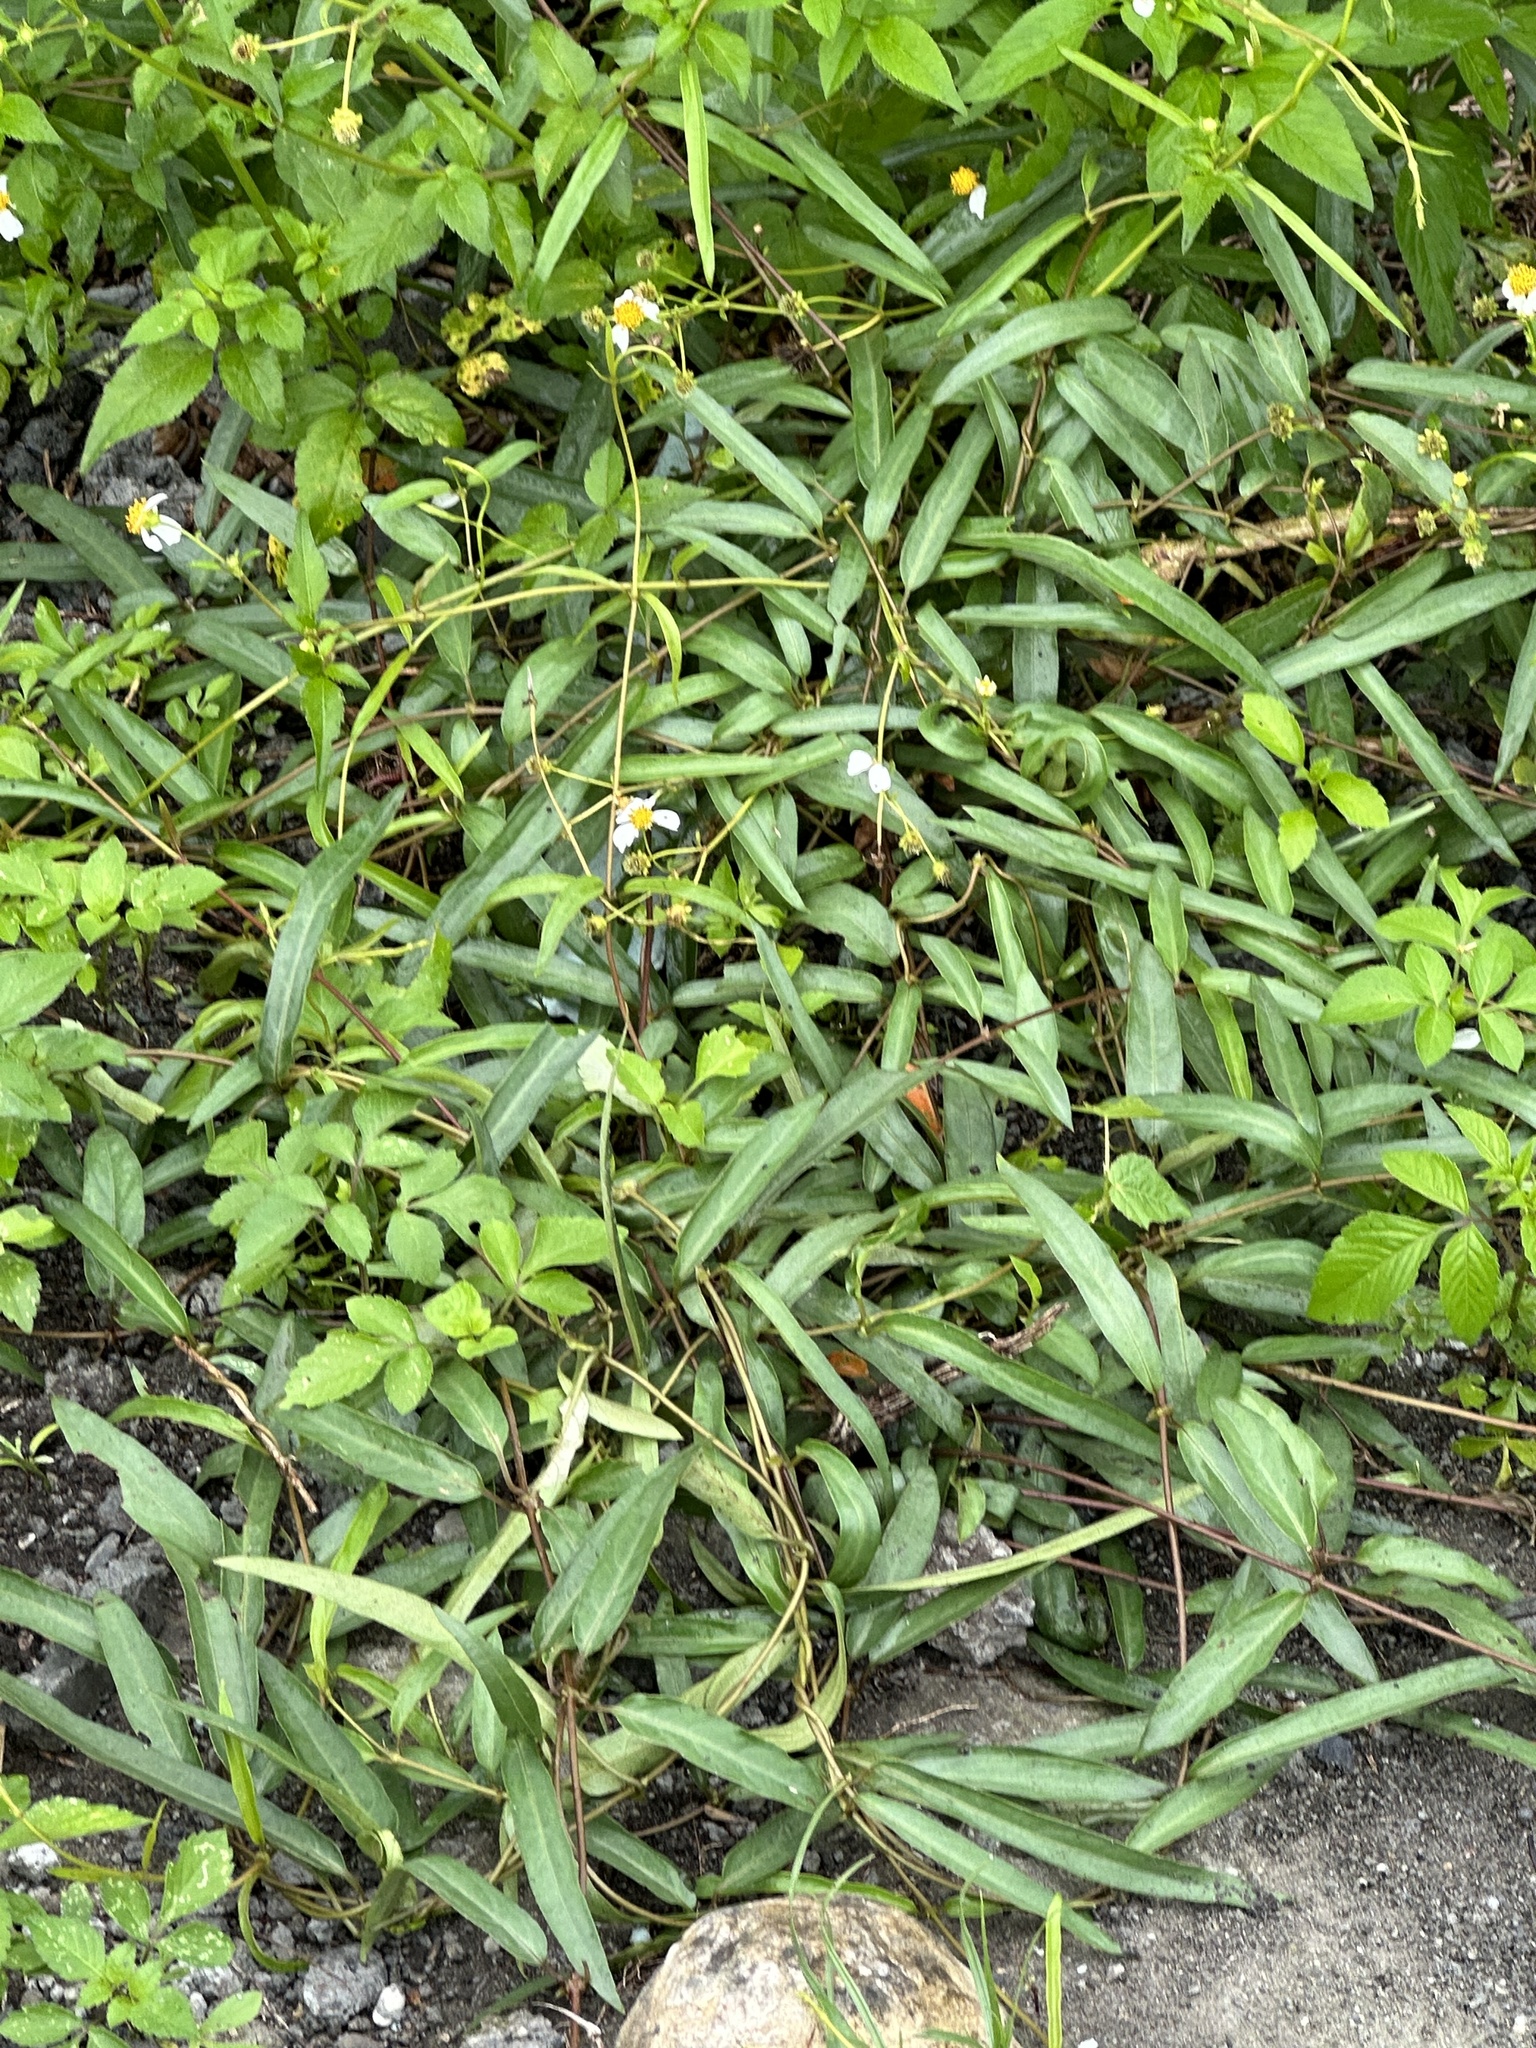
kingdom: Plantae
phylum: Tracheophyta
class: Magnoliopsida
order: Gentianales
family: Rubiaceae
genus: Paederia
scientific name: Paederia foetida
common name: Stinkvine
